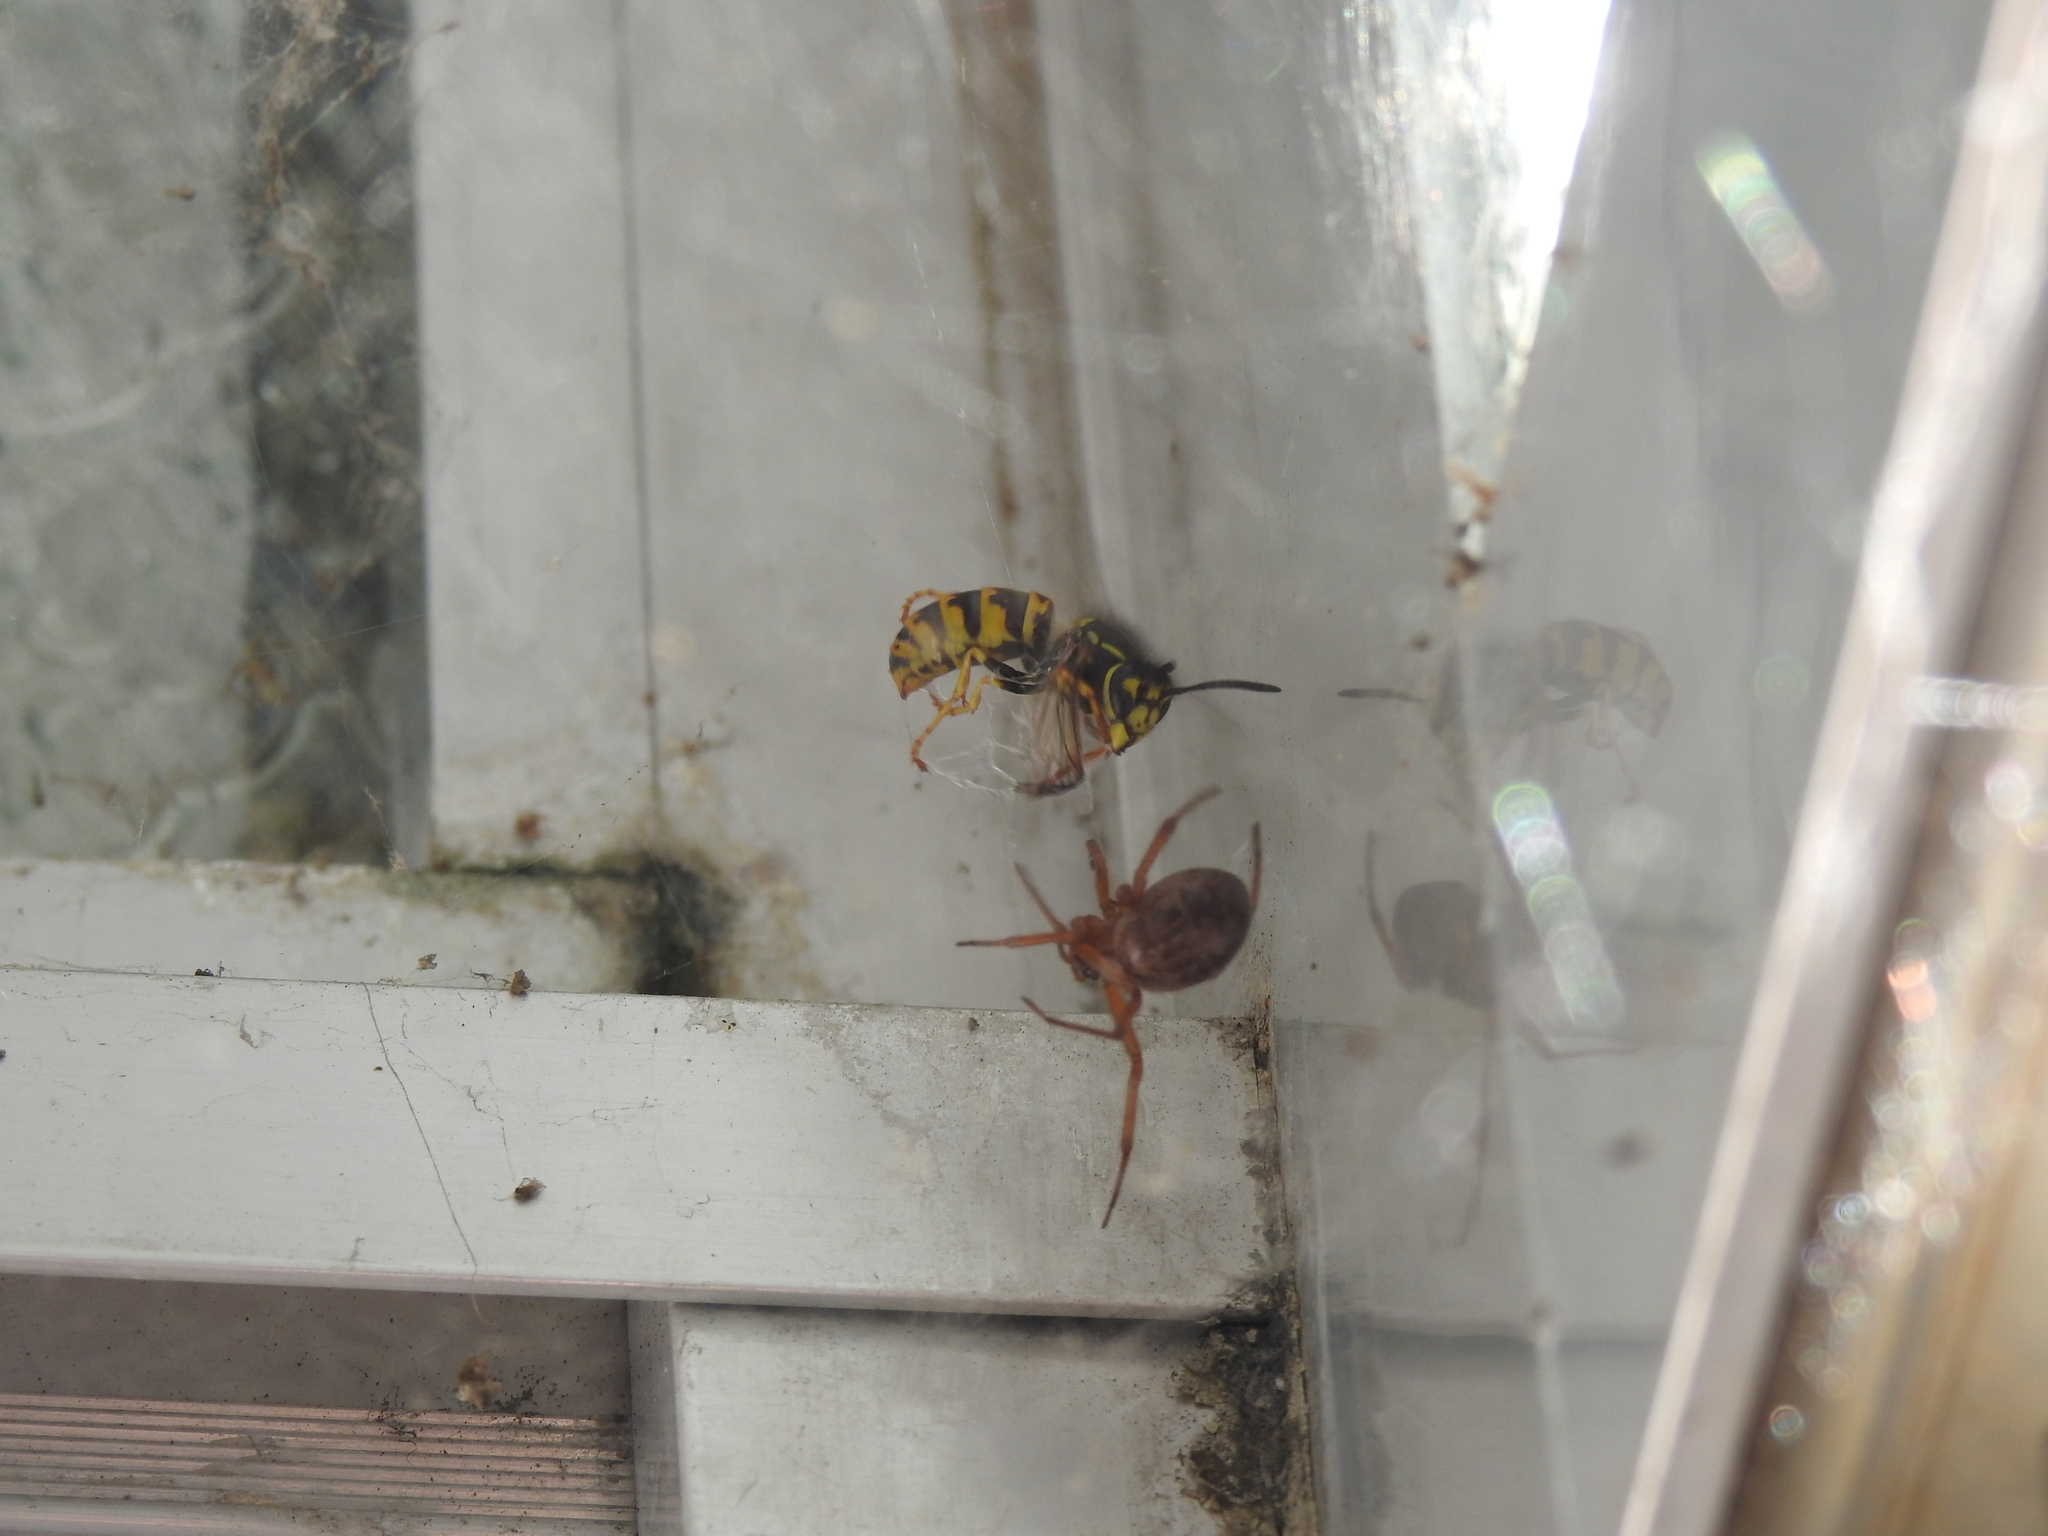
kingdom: Animalia
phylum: Arthropoda
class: Insecta
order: Hymenoptera
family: Vespidae
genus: Vespula
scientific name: Vespula germanica
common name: German wasp
